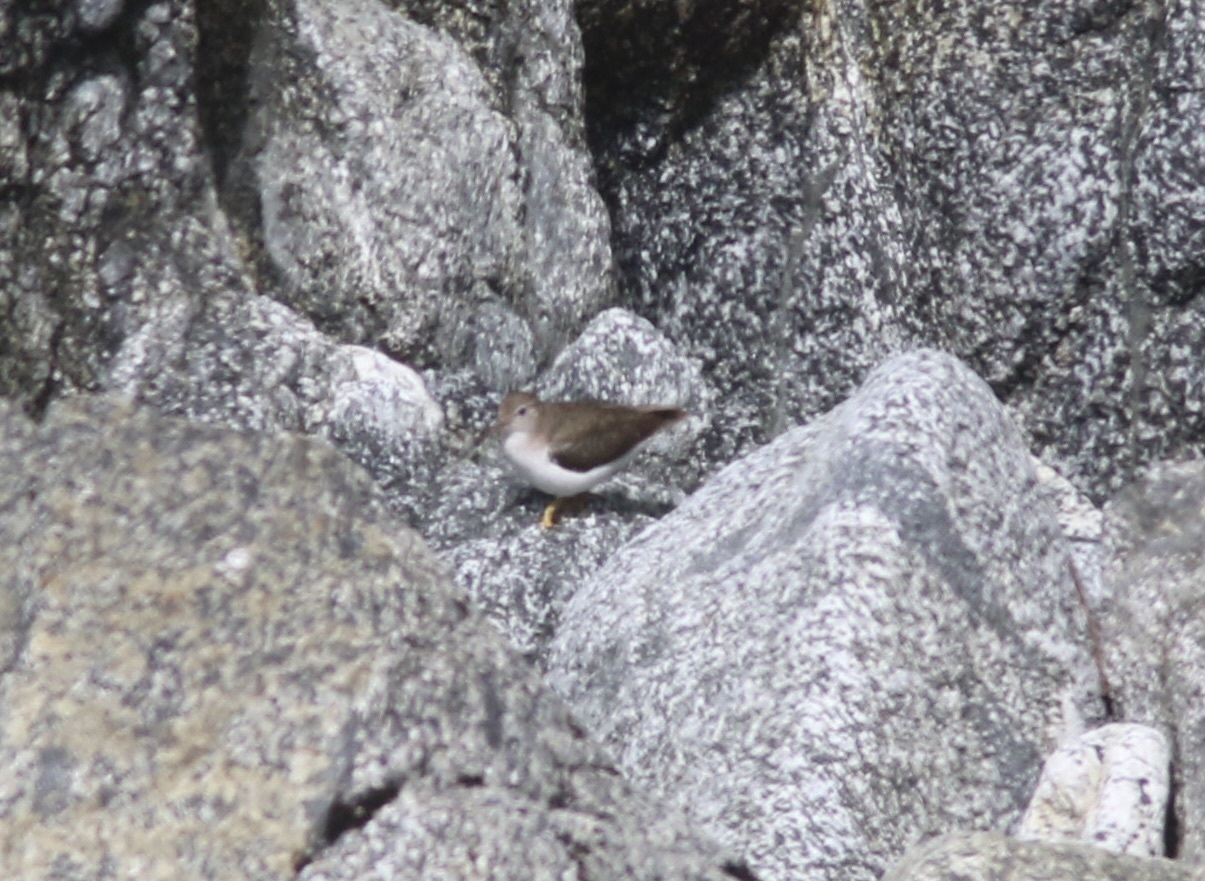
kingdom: Animalia
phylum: Chordata
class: Aves
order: Charadriiformes
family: Scolopacidae
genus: Actitis
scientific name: Actitis macularius
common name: Spotted sandpiper
